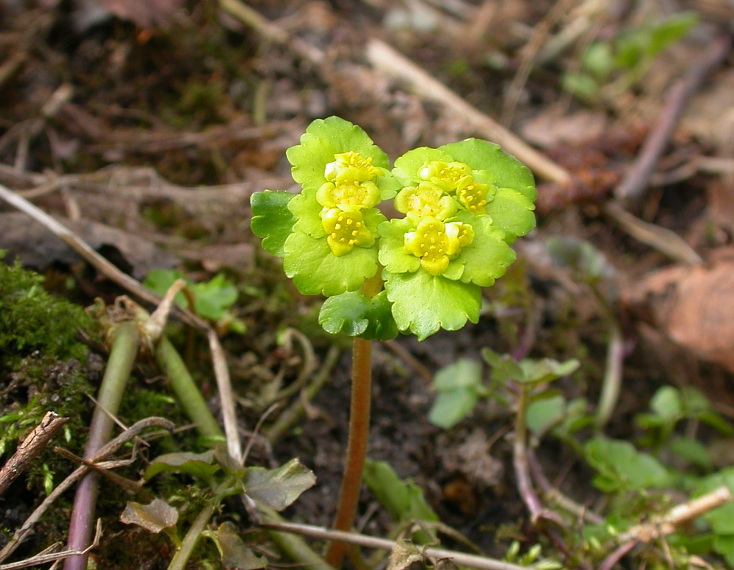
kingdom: Plantae
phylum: Tracheophyta
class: Magnoliopsida
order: Saxifragales
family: Saxifragaceae
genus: Chrysosplenium
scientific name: Chrysosplenium alternifolium
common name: Alternate-leaved golden-saxifrage
